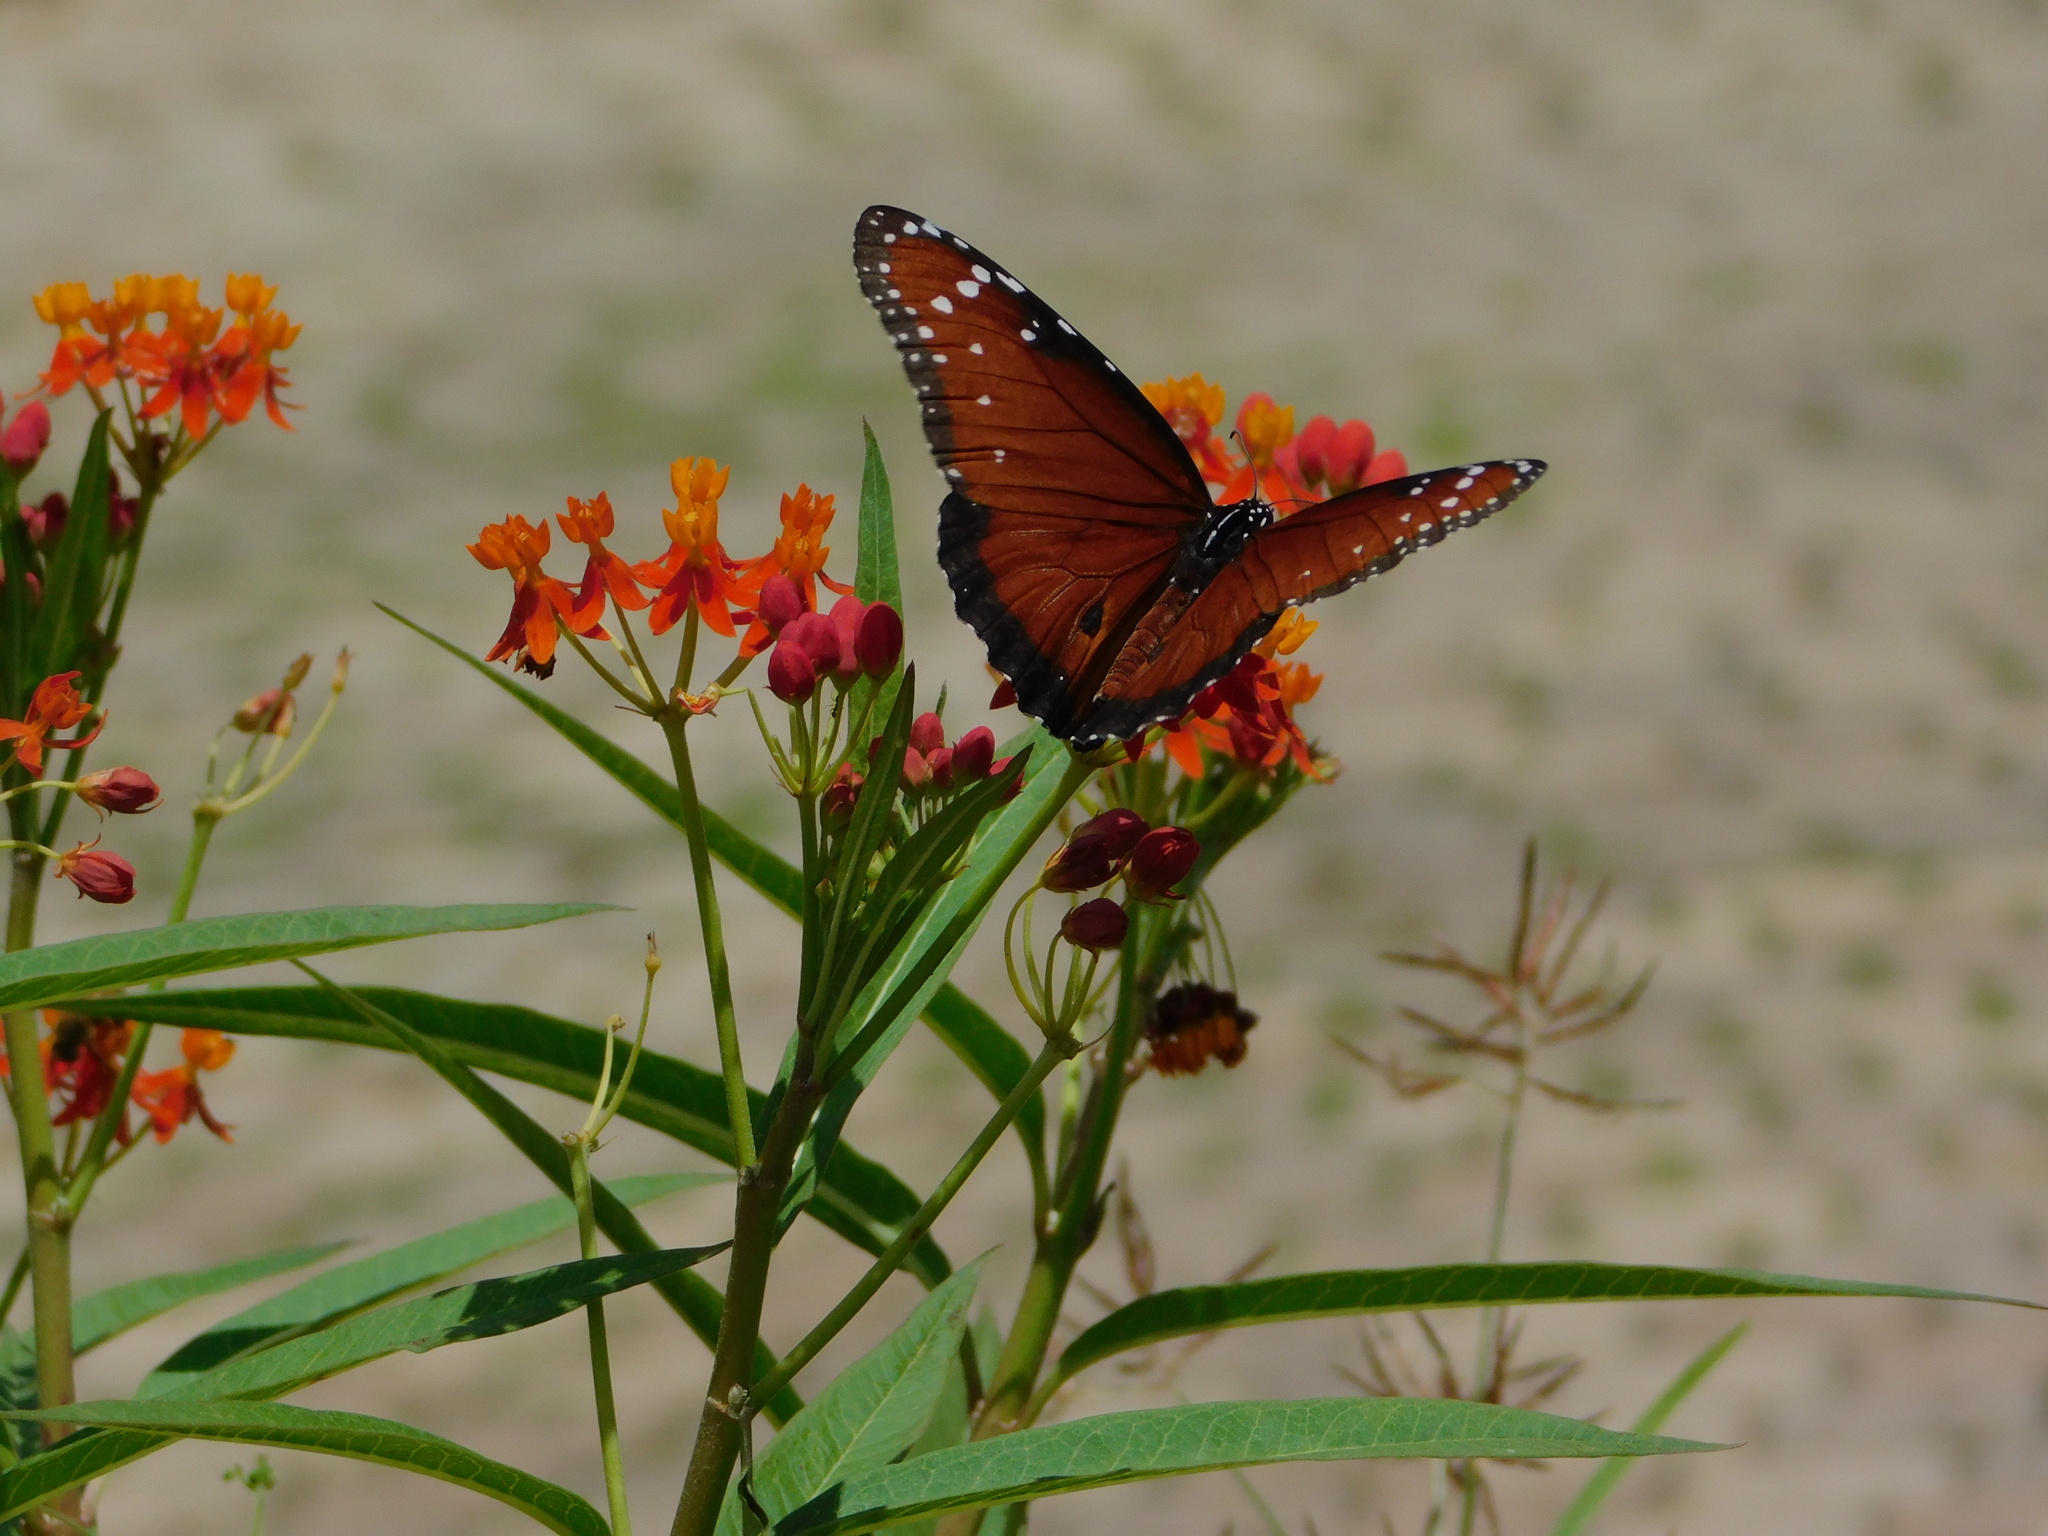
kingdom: Animalia
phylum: Arthropoda
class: Insecta
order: Lepidoptera
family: Nymphalidae
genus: Danaus
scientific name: Danaus gilippus
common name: Queen
